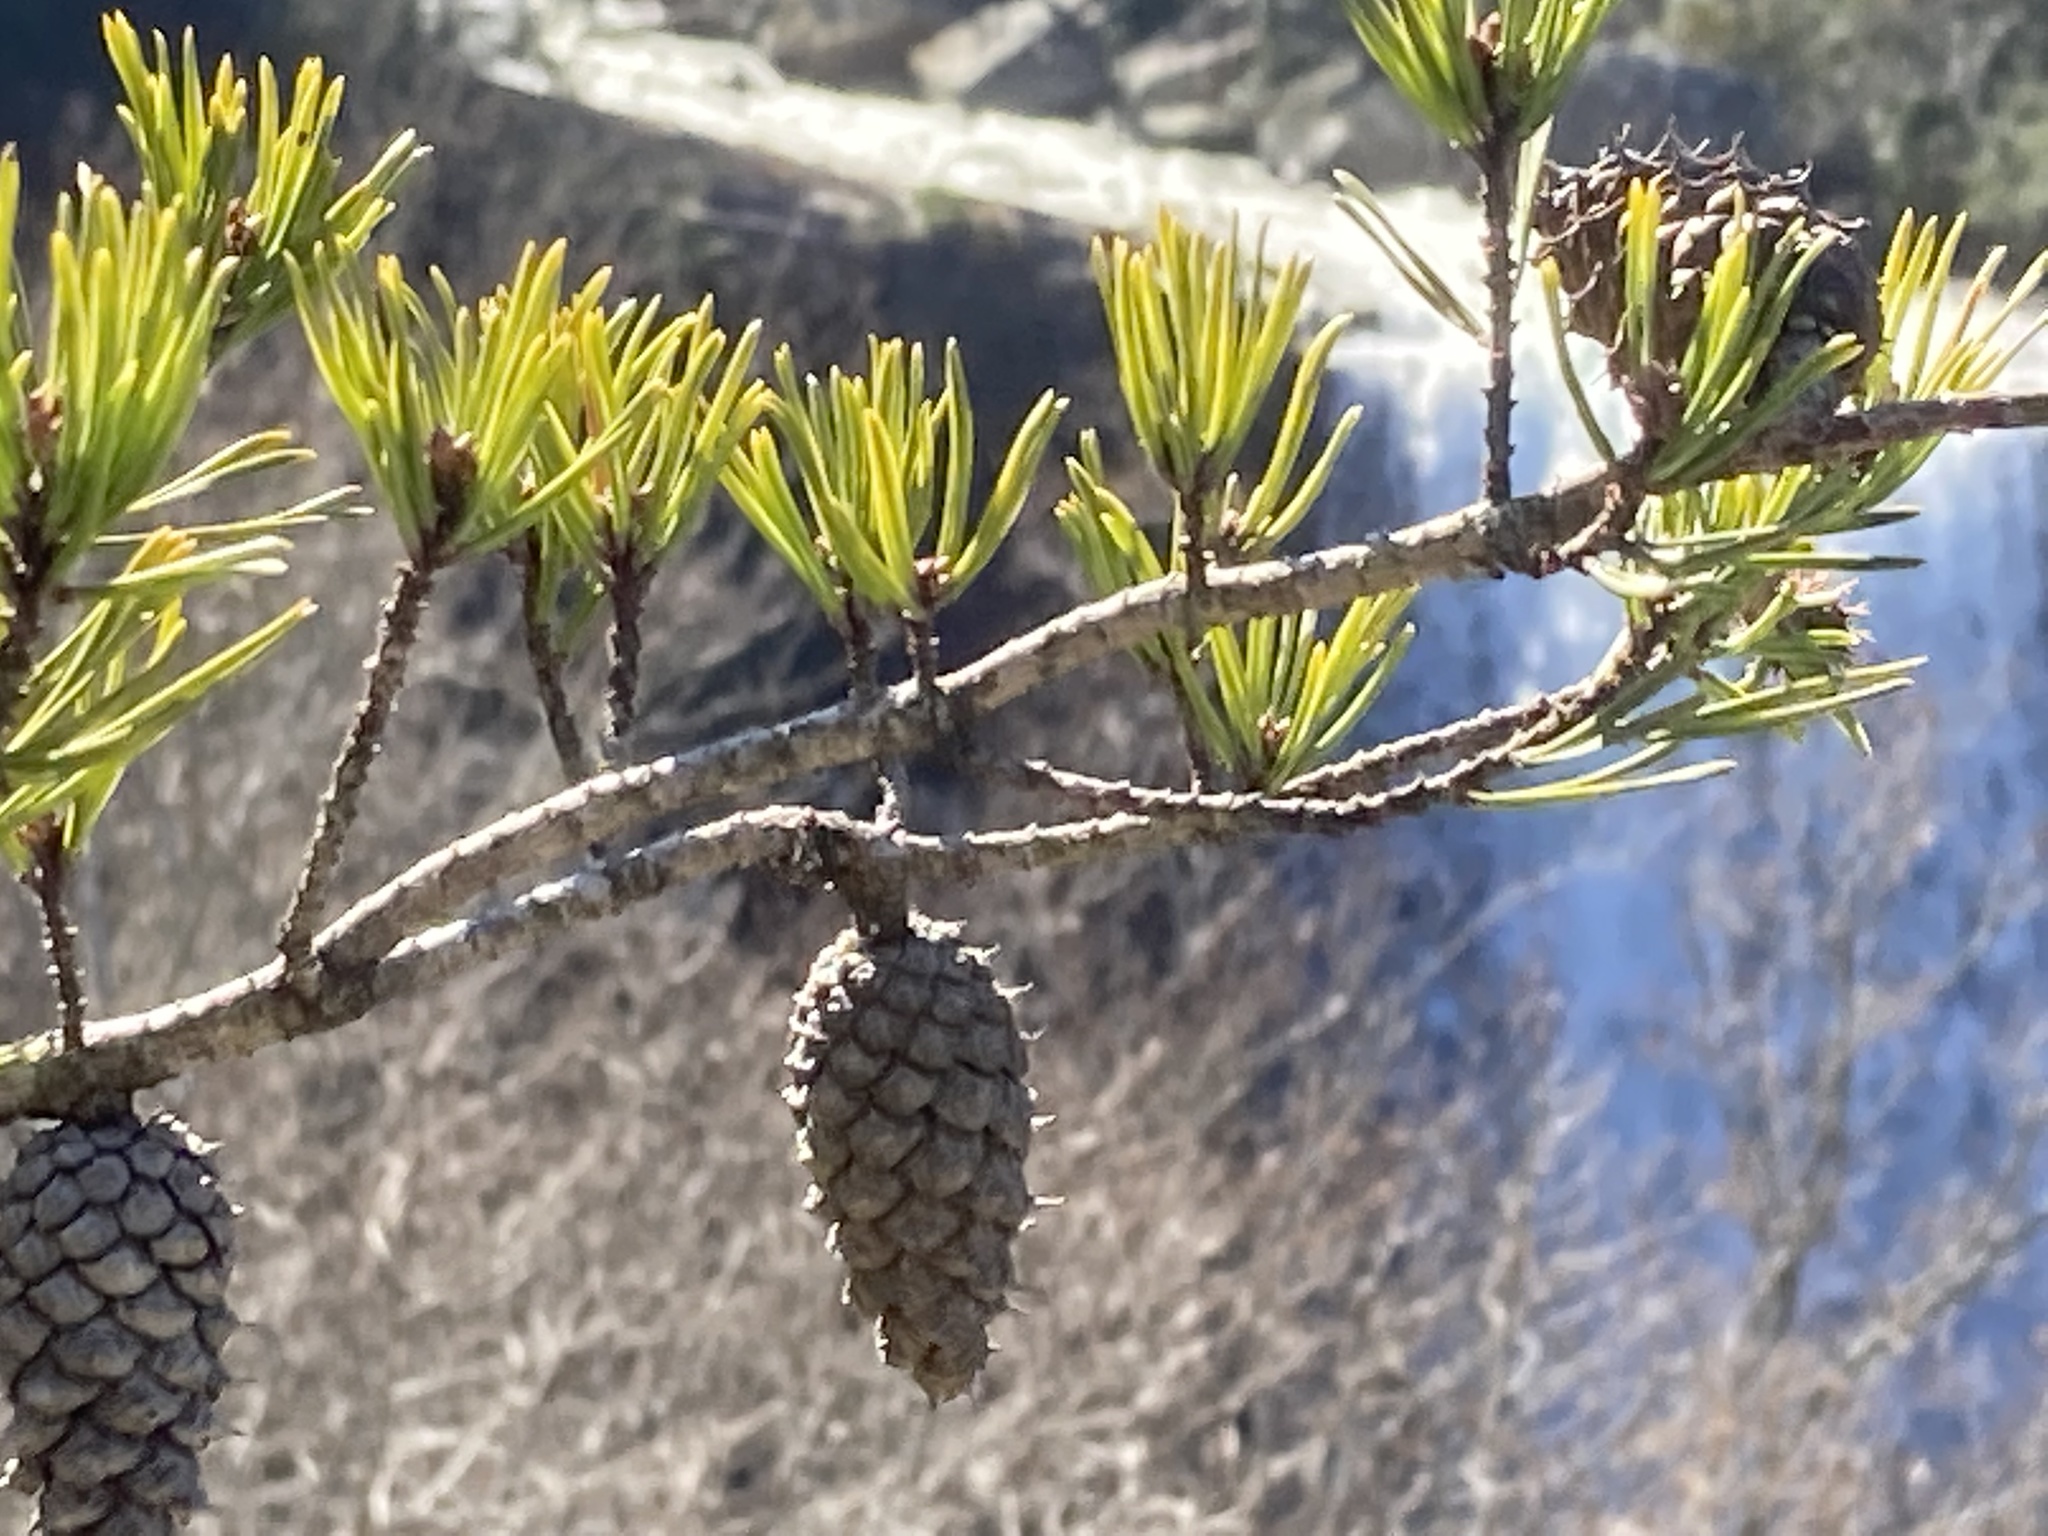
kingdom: Plantae
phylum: Tracheophyta
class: Pinopsida
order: Pinales
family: Pinaceae
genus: Pinus
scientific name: Pinus virginiana
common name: Scrub pine
